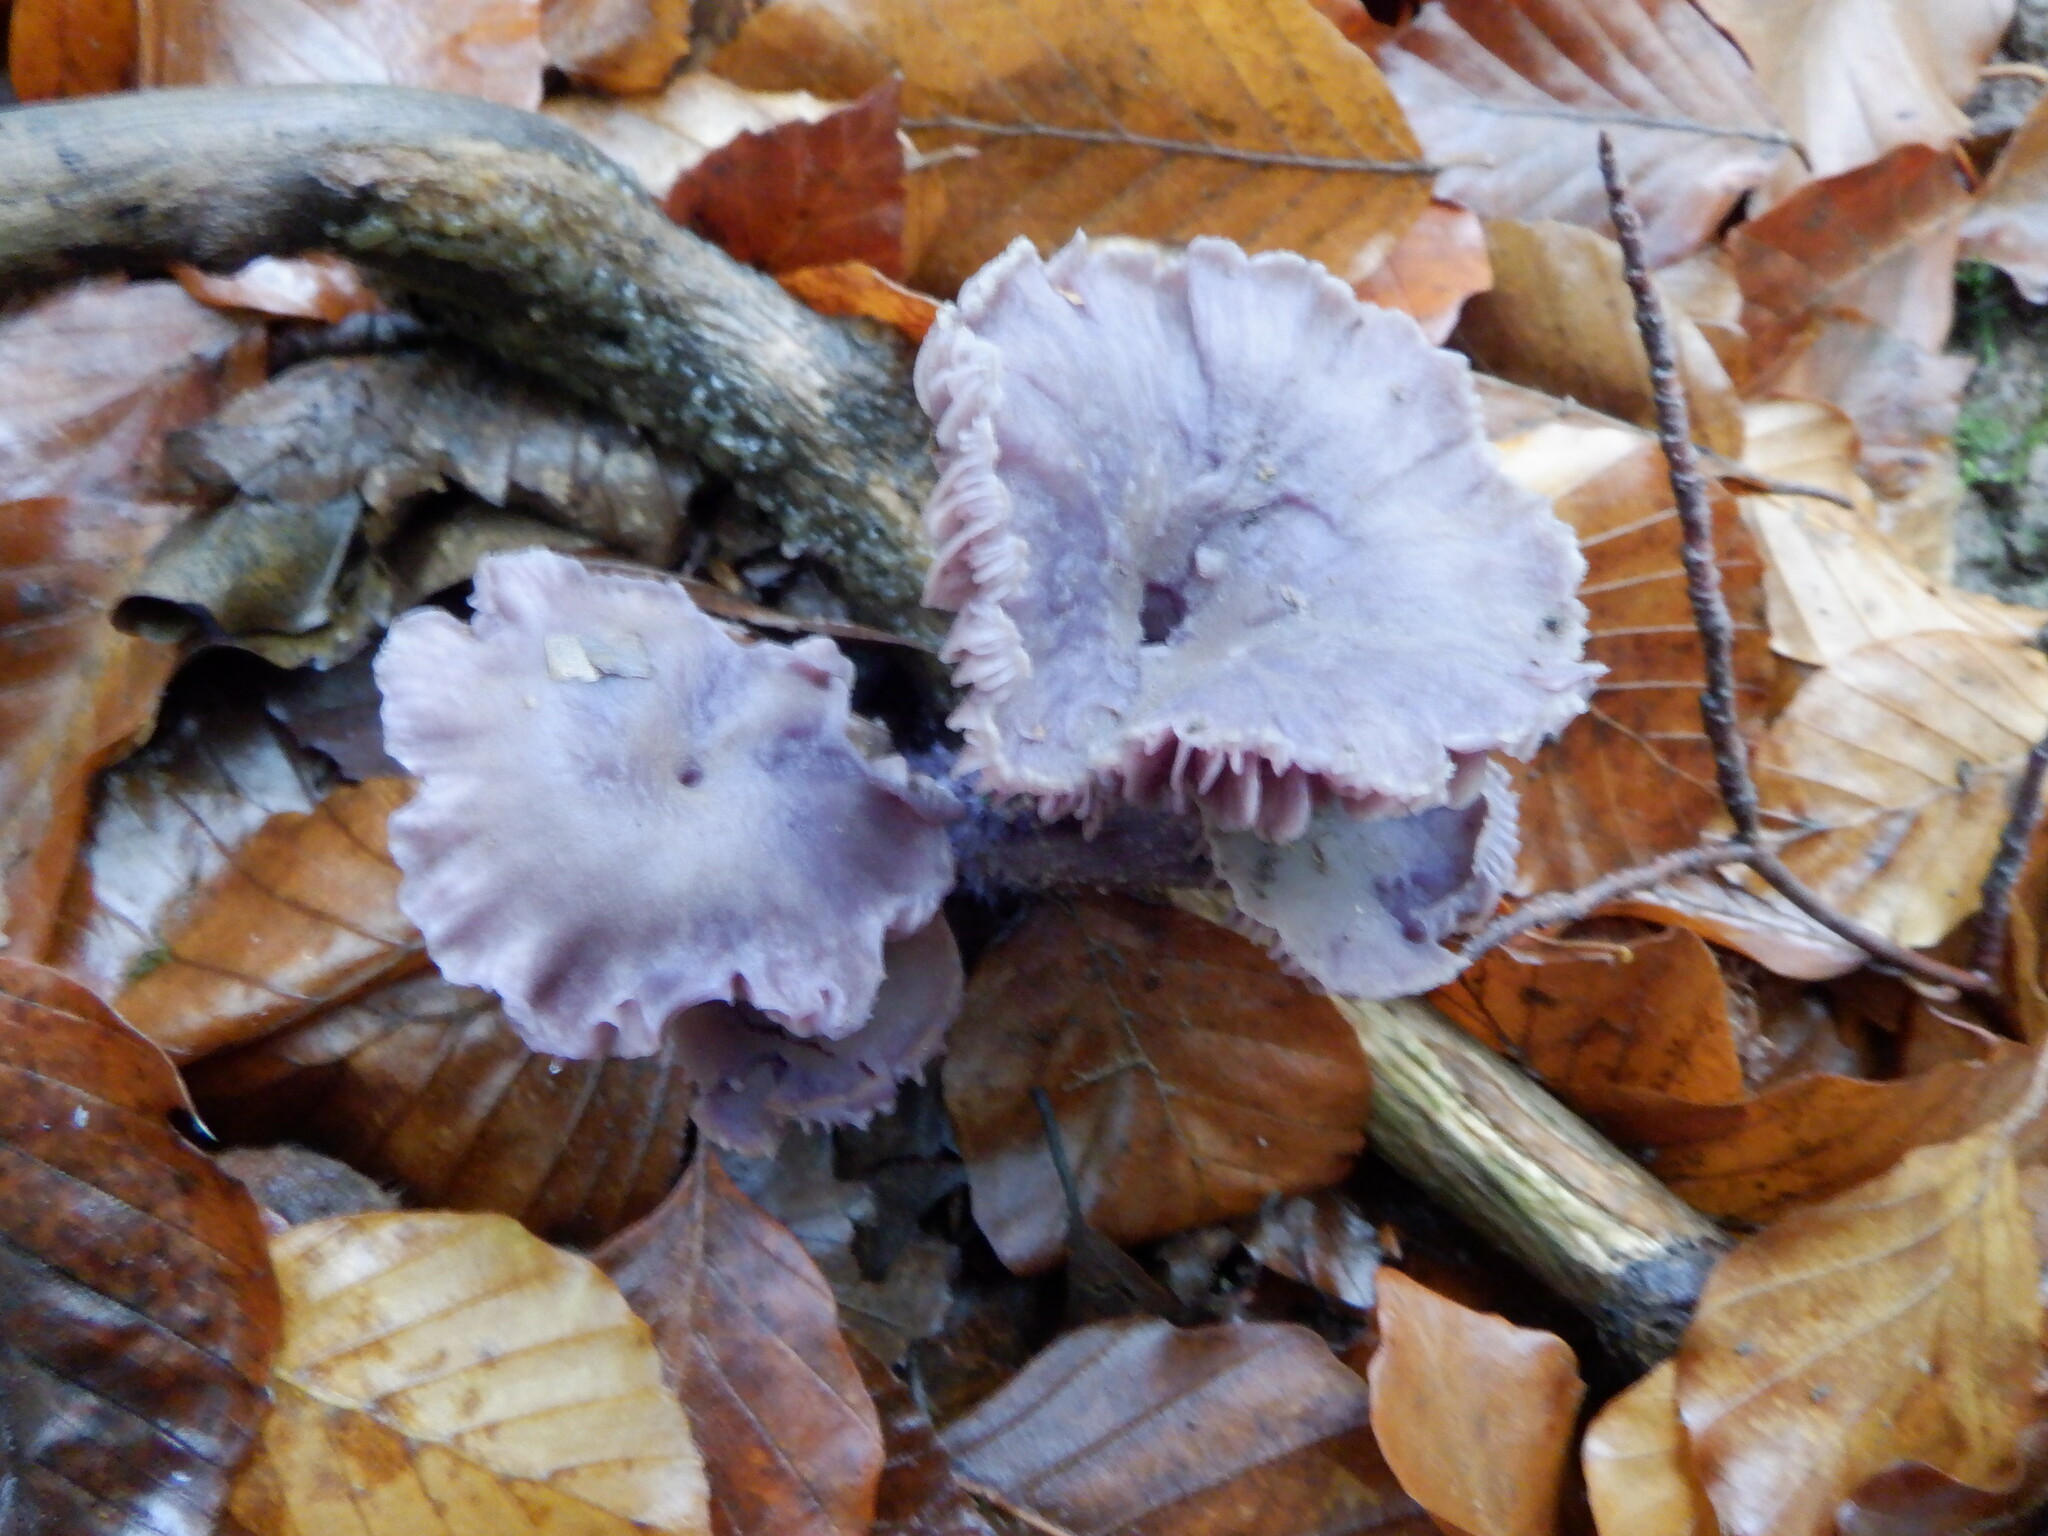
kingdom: Fungi
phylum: Basidiomycota
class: Agaricomycetes
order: Agaricales
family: Hydnangiaceae
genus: Laccaria
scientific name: Laccaria amethystina
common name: Amethyst deceiver
